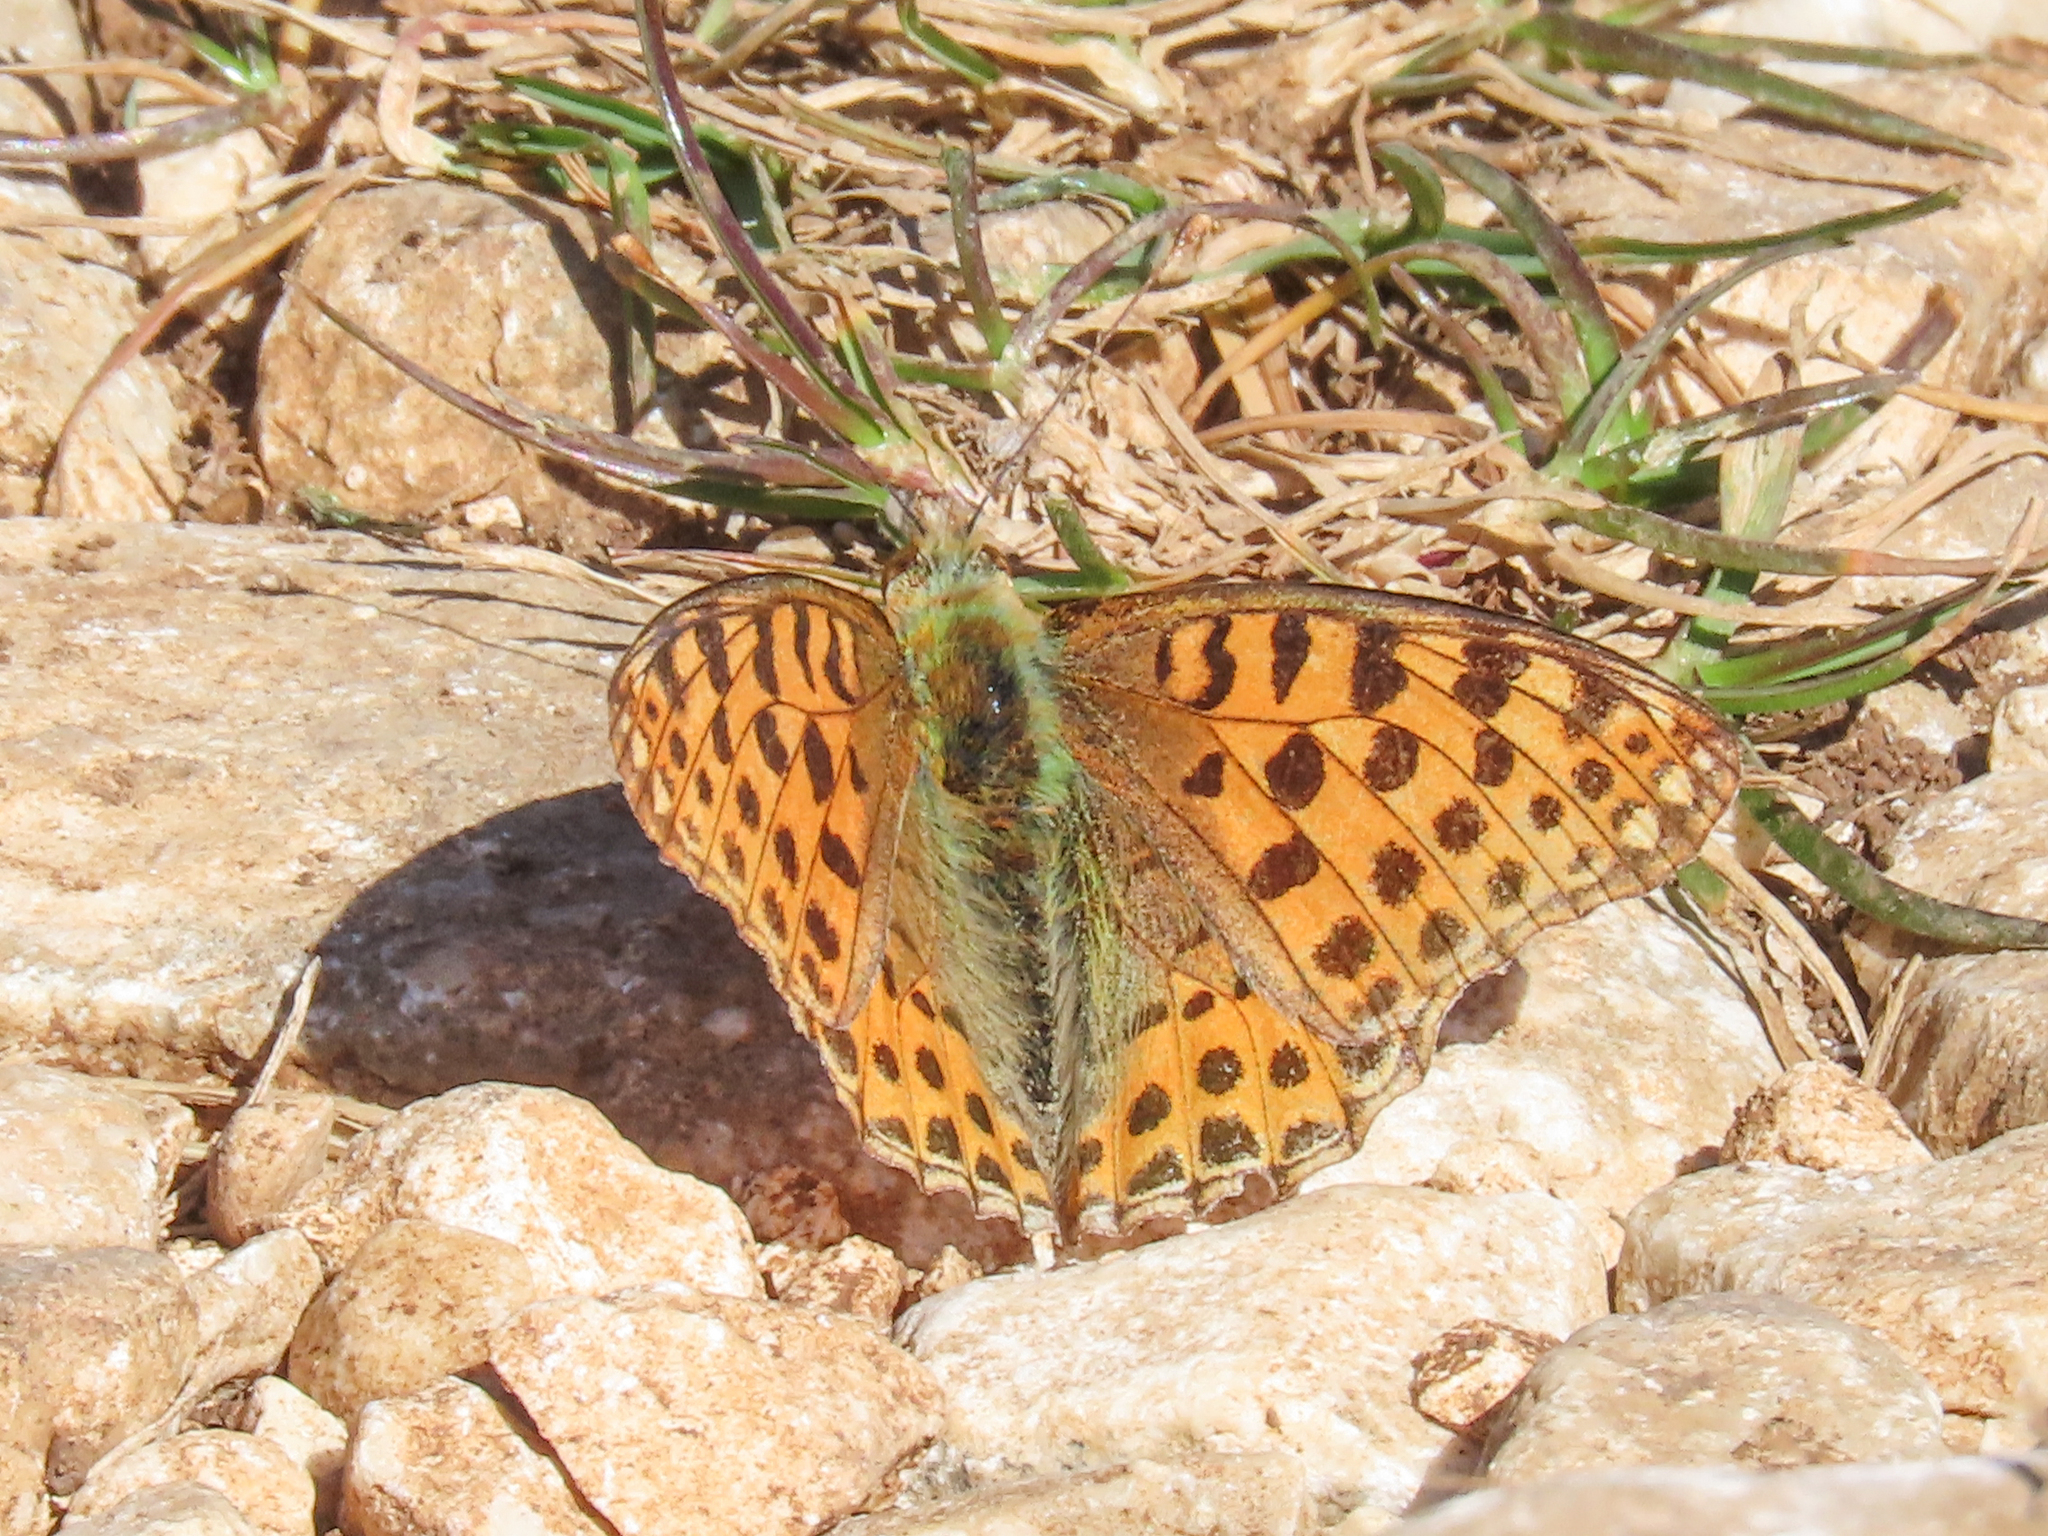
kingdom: Animalia
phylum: Arthropoda
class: Insecta
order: Lepidoptera
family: Nymphalidae
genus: Issoria
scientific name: Issoria lathonia
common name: Queen of spain fritillary
